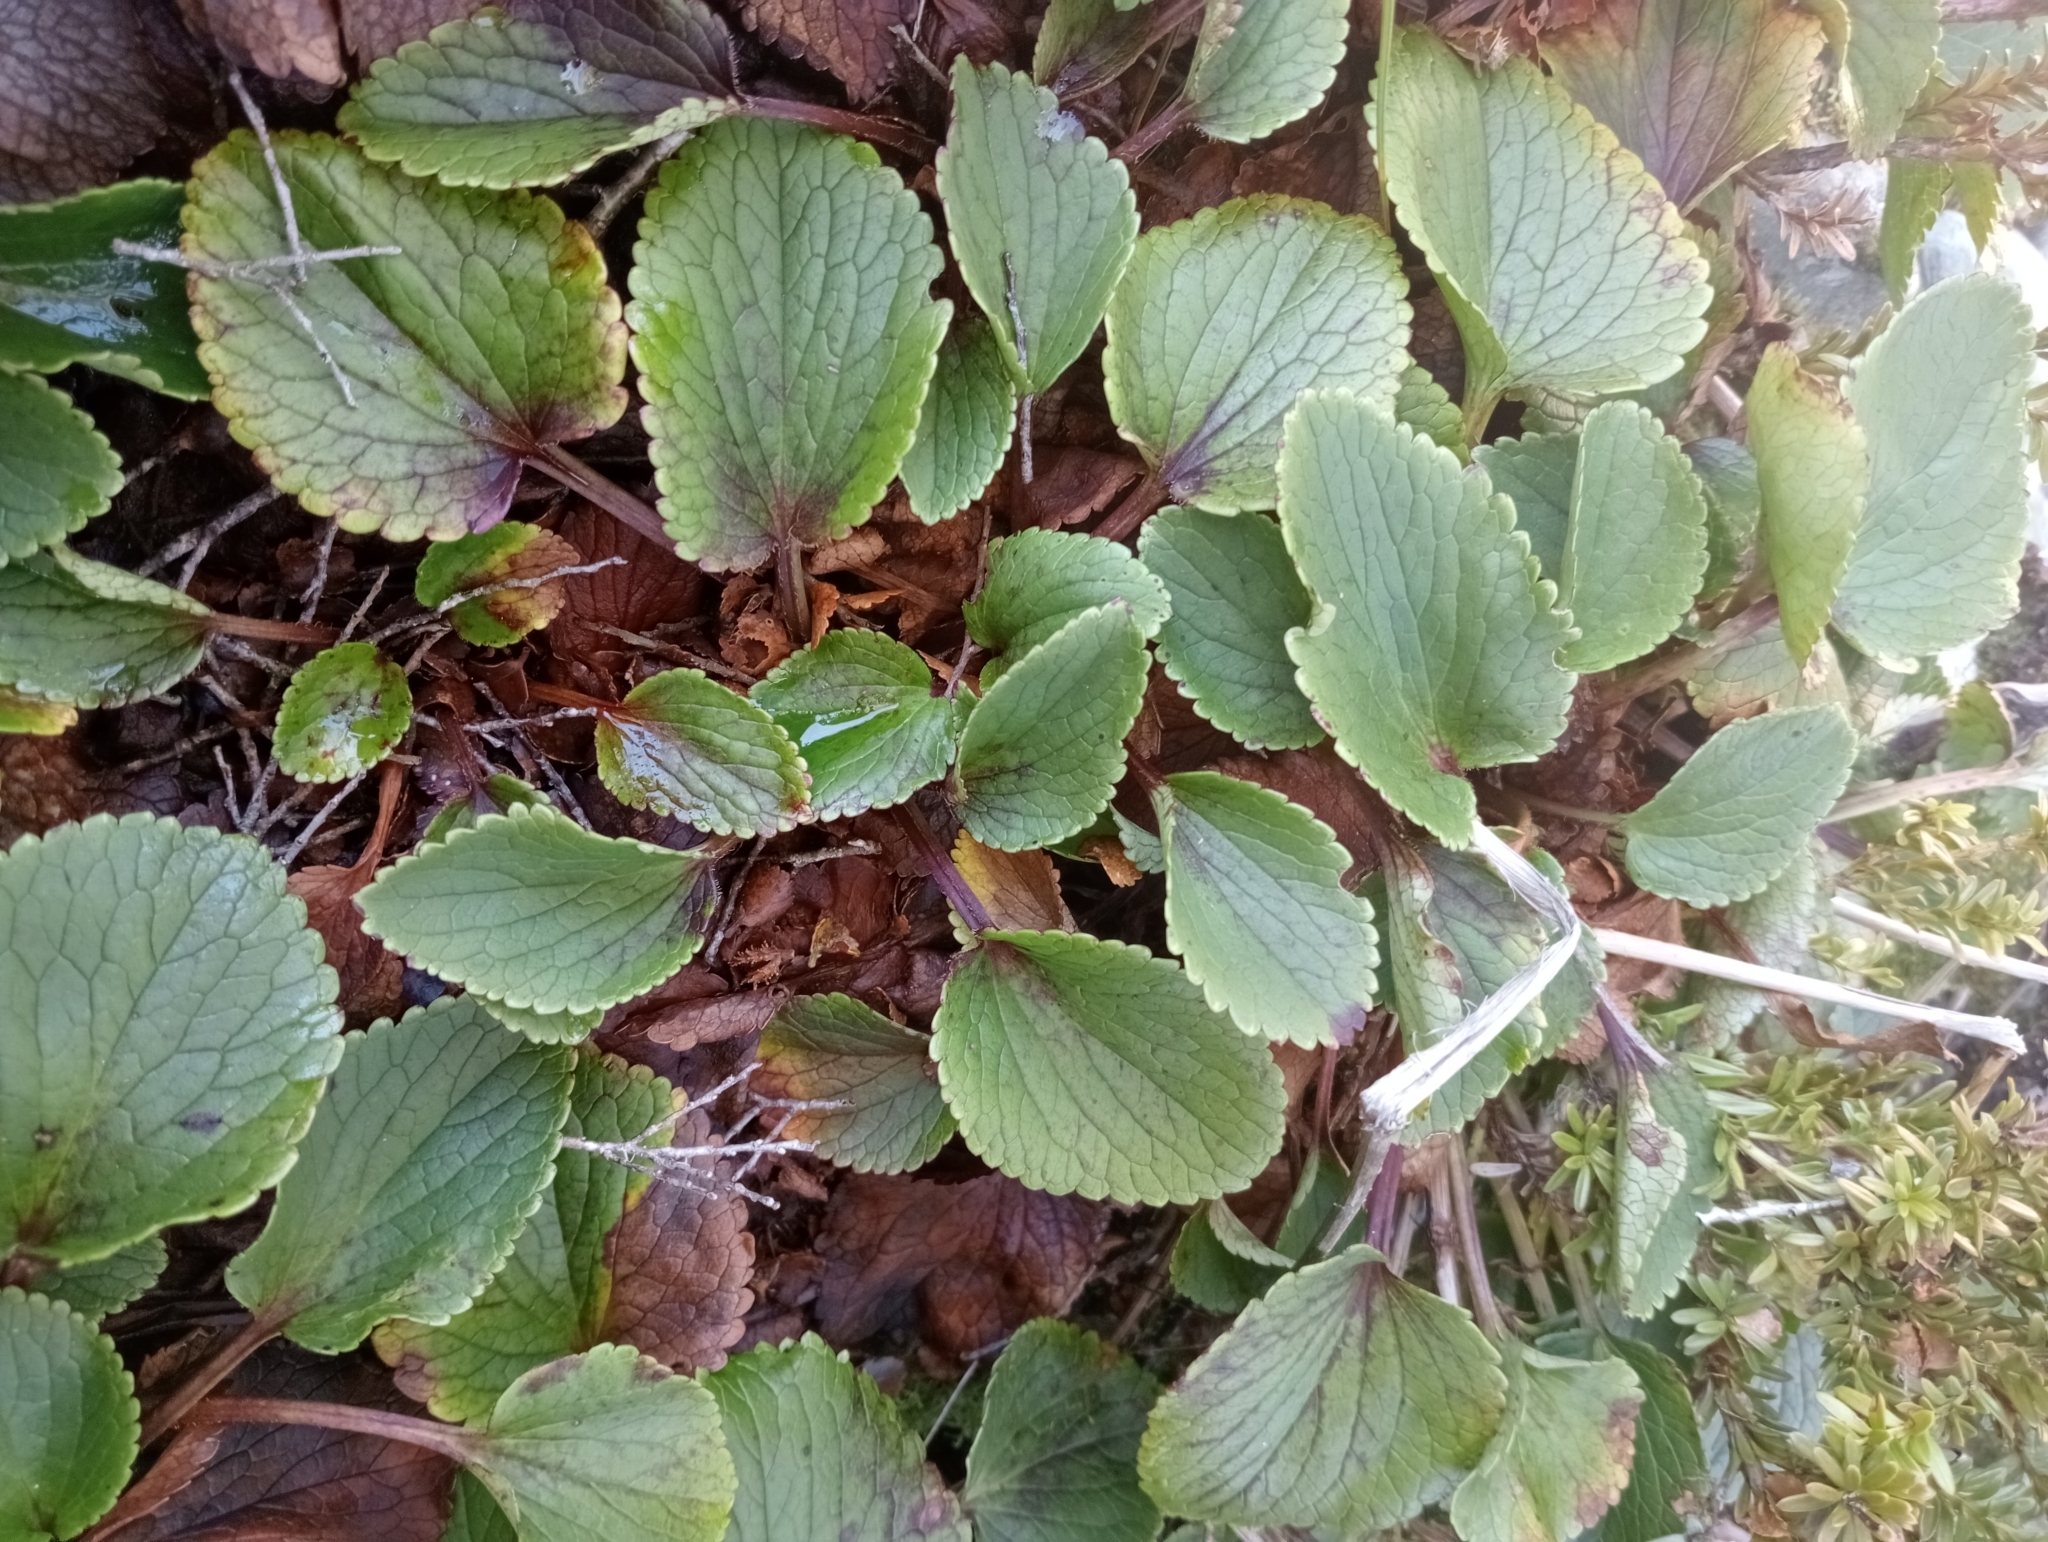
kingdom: Plantae
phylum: Tracheophyta
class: Magnoliopsida
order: Lamiales
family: Plantaginaceae
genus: Ourisia
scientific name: Ourisia macrophylla
